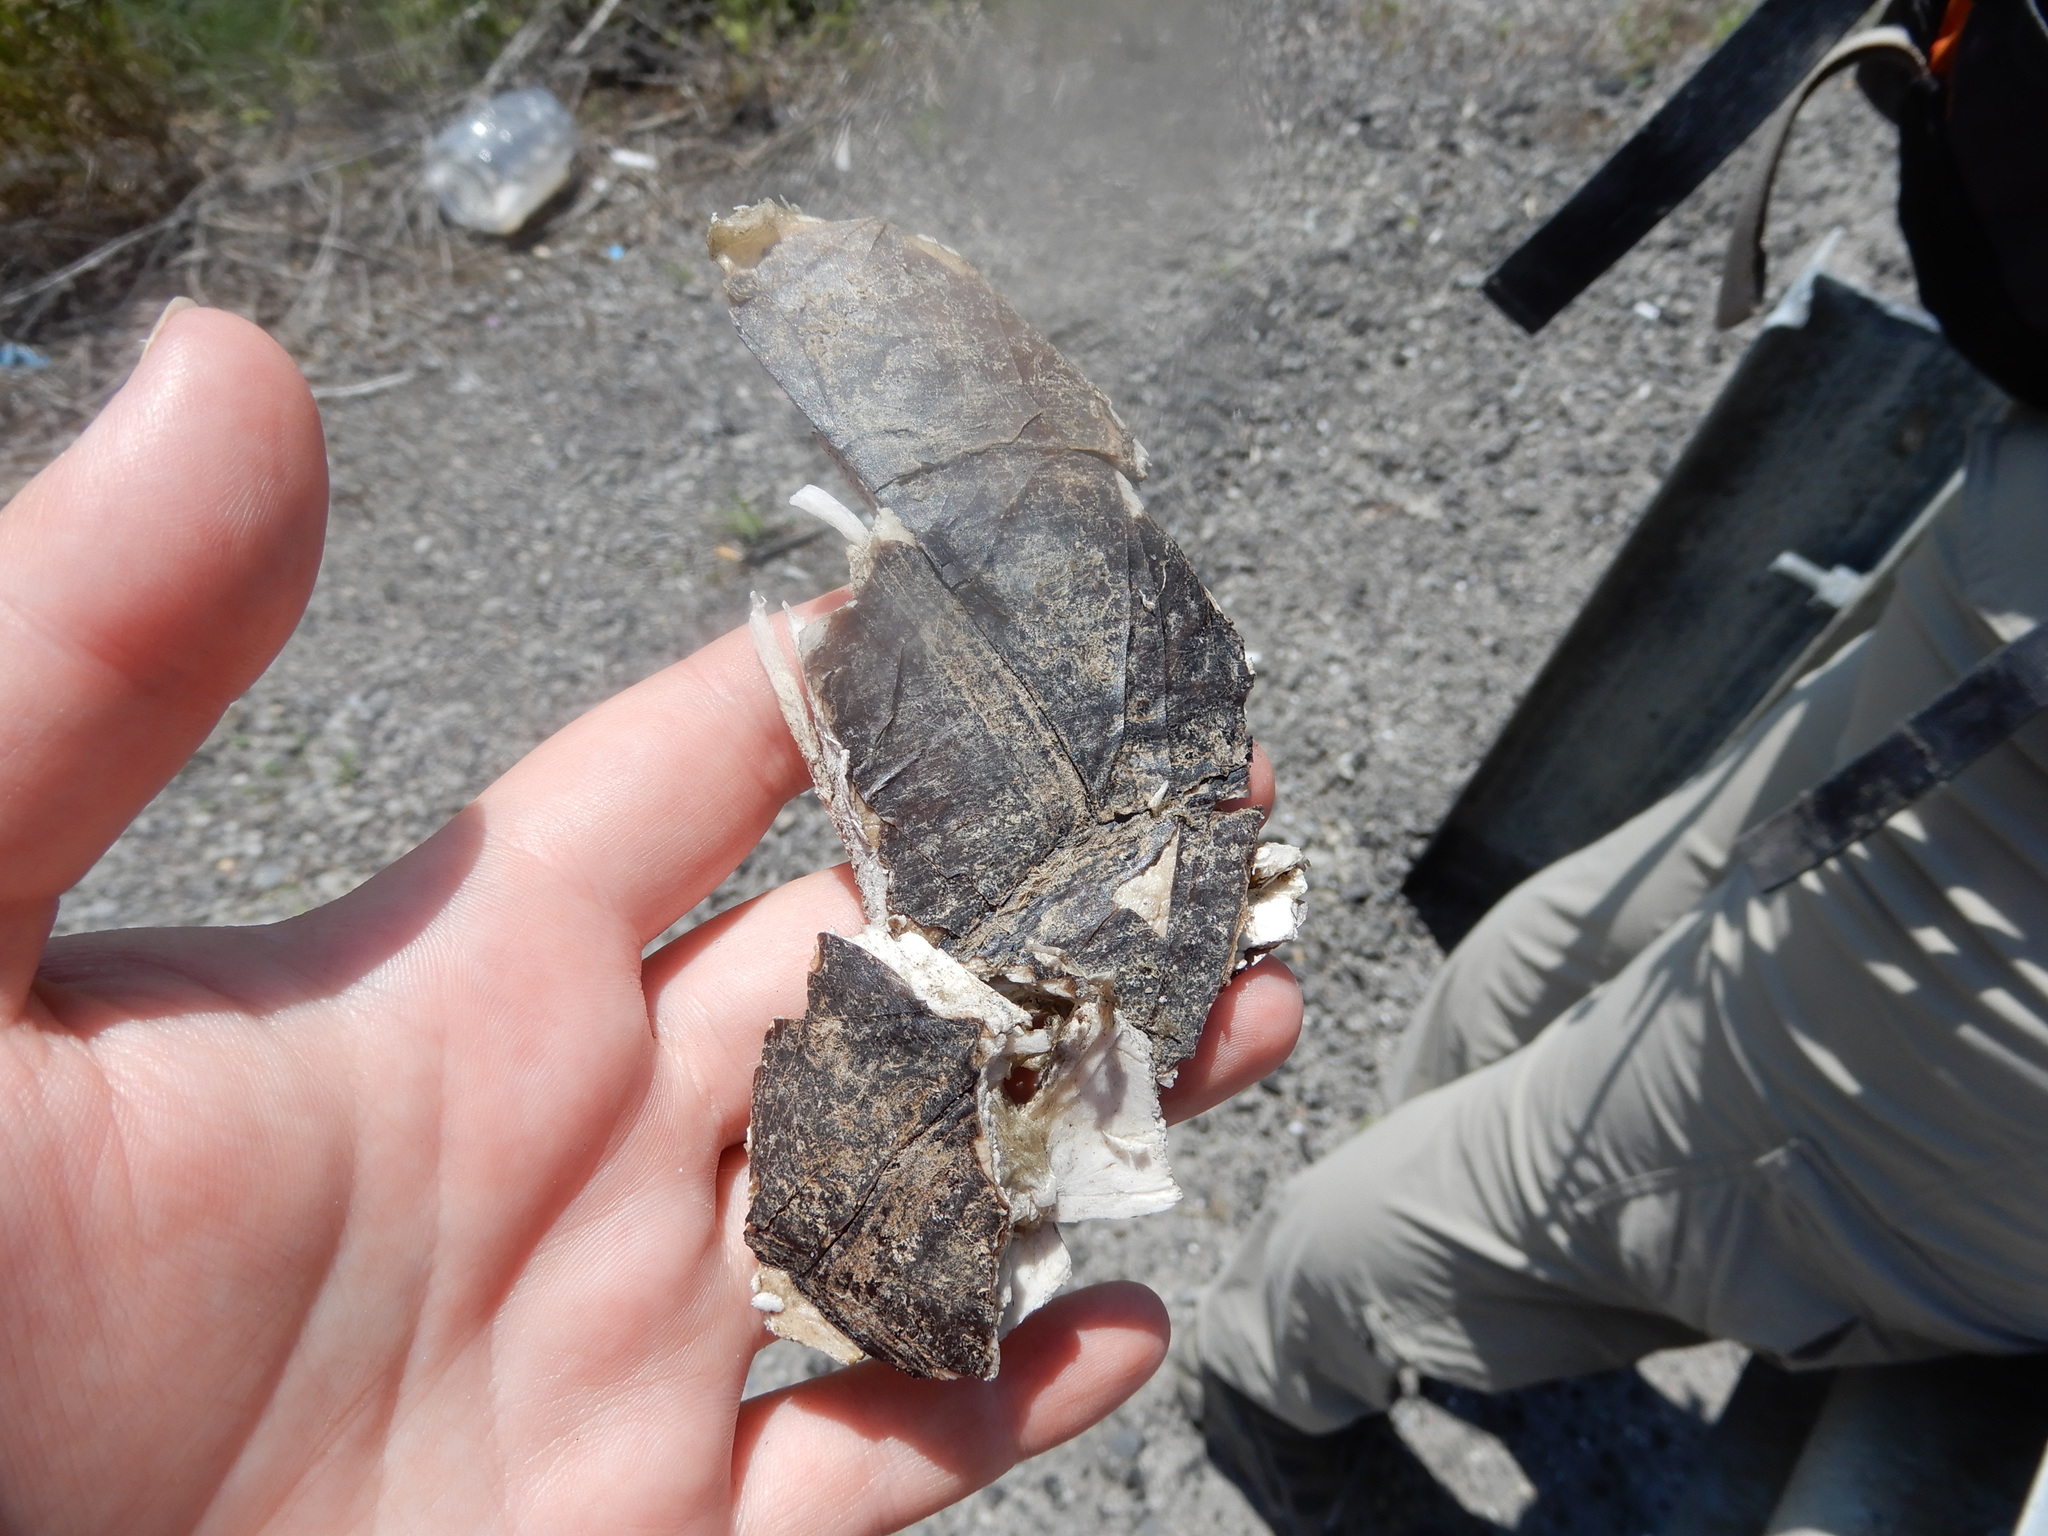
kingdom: Animalia
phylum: Chordata
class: Testudines
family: Chelydridae
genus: Chelydra
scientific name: Chelydra serpentina
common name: Common snapping turtle
